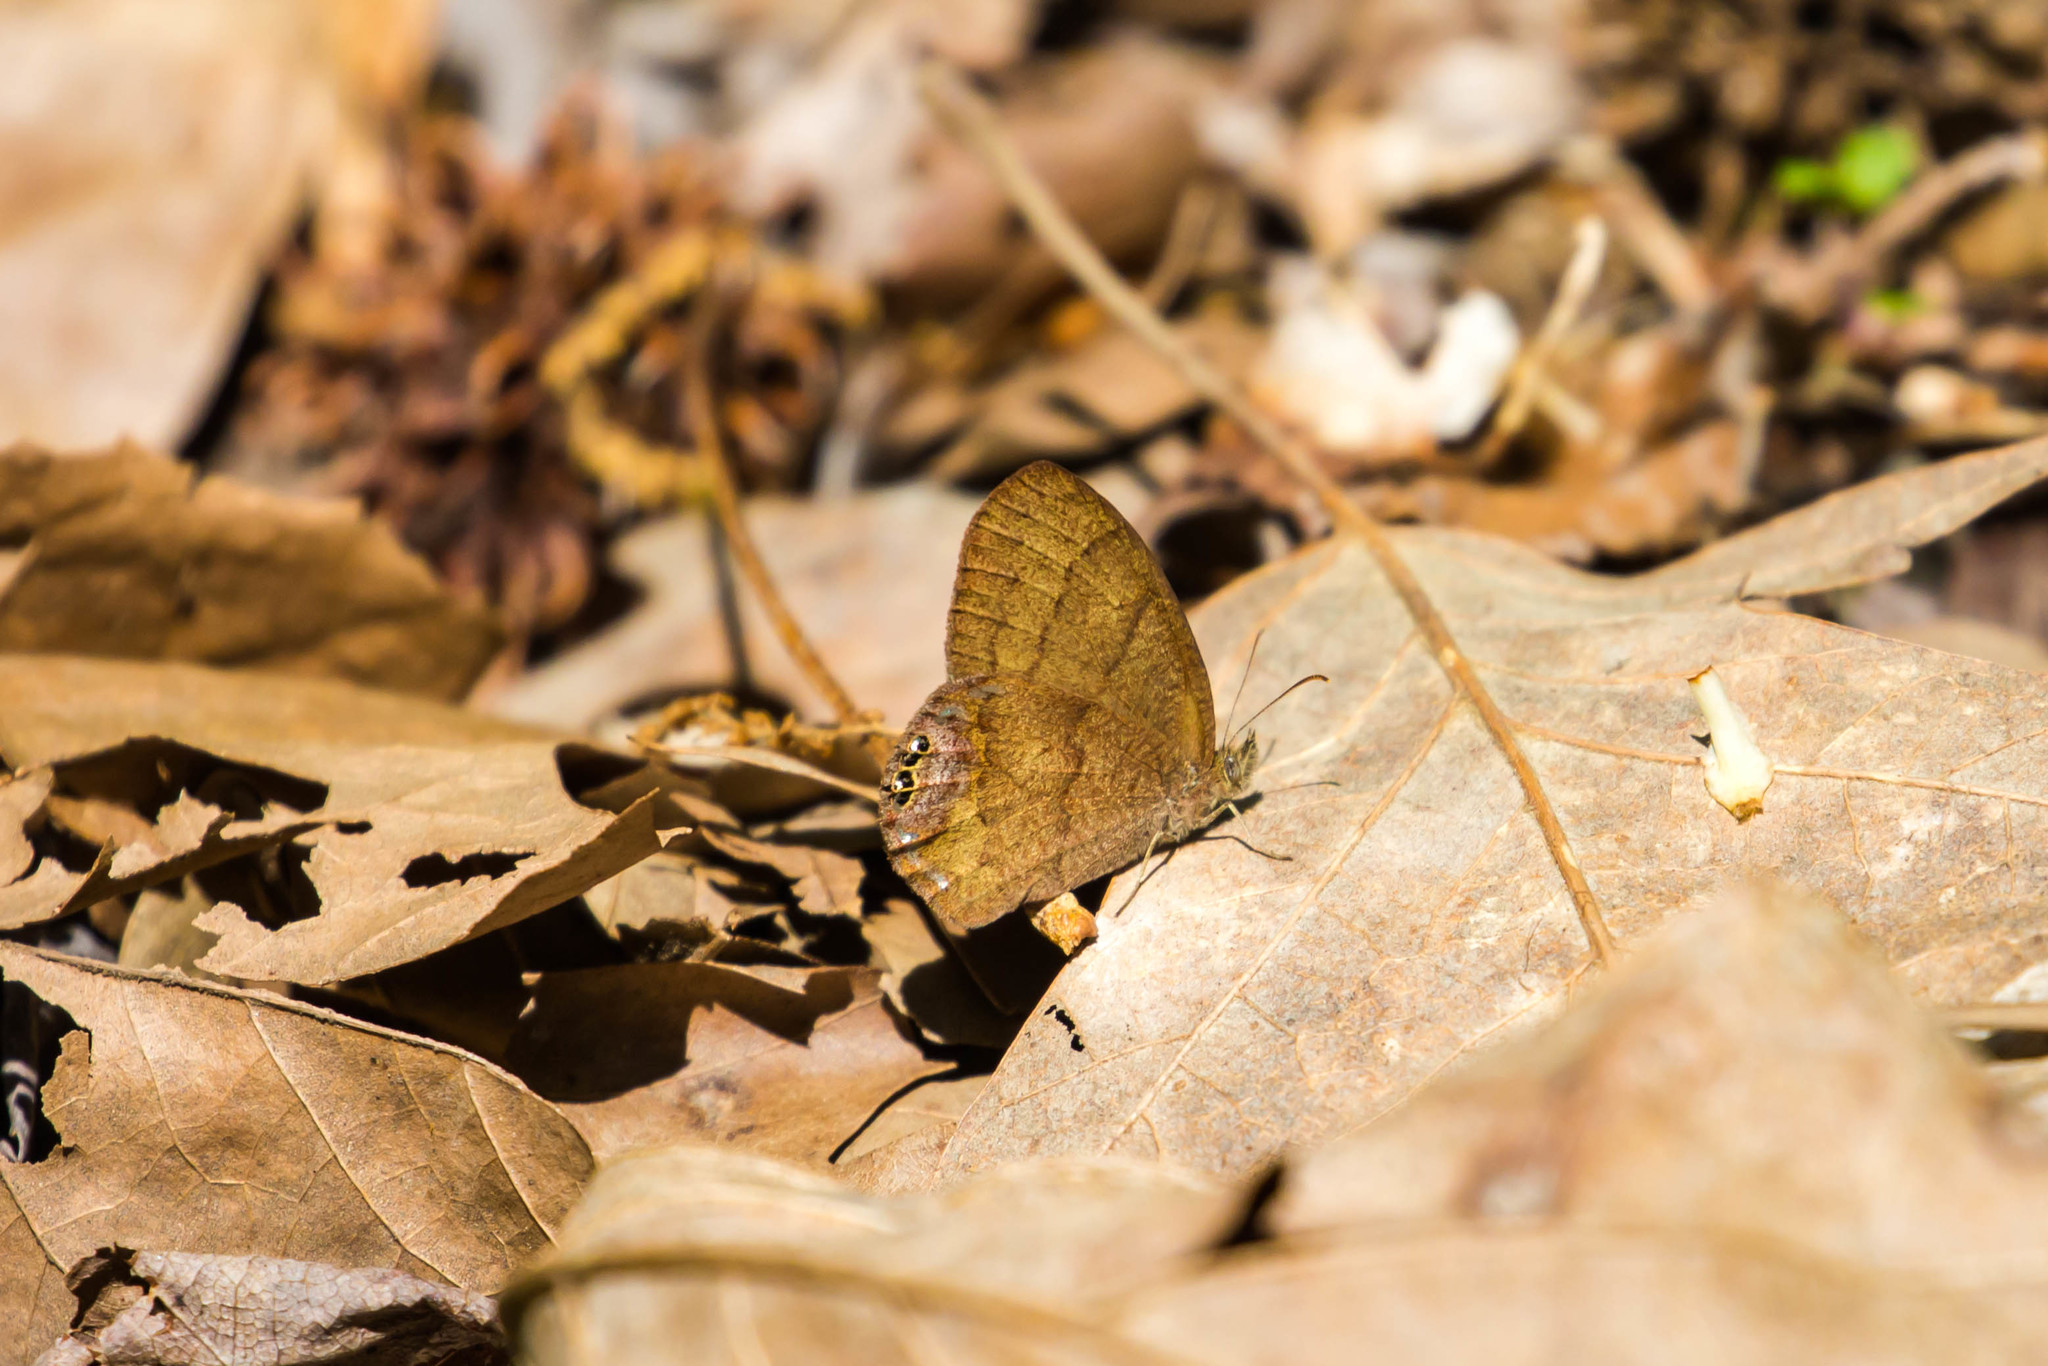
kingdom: Animalia
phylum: Arthropoda
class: Insecta
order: Lepidoptera
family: Nymphalidae
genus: Euptychia
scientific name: Euptychia cornelius
